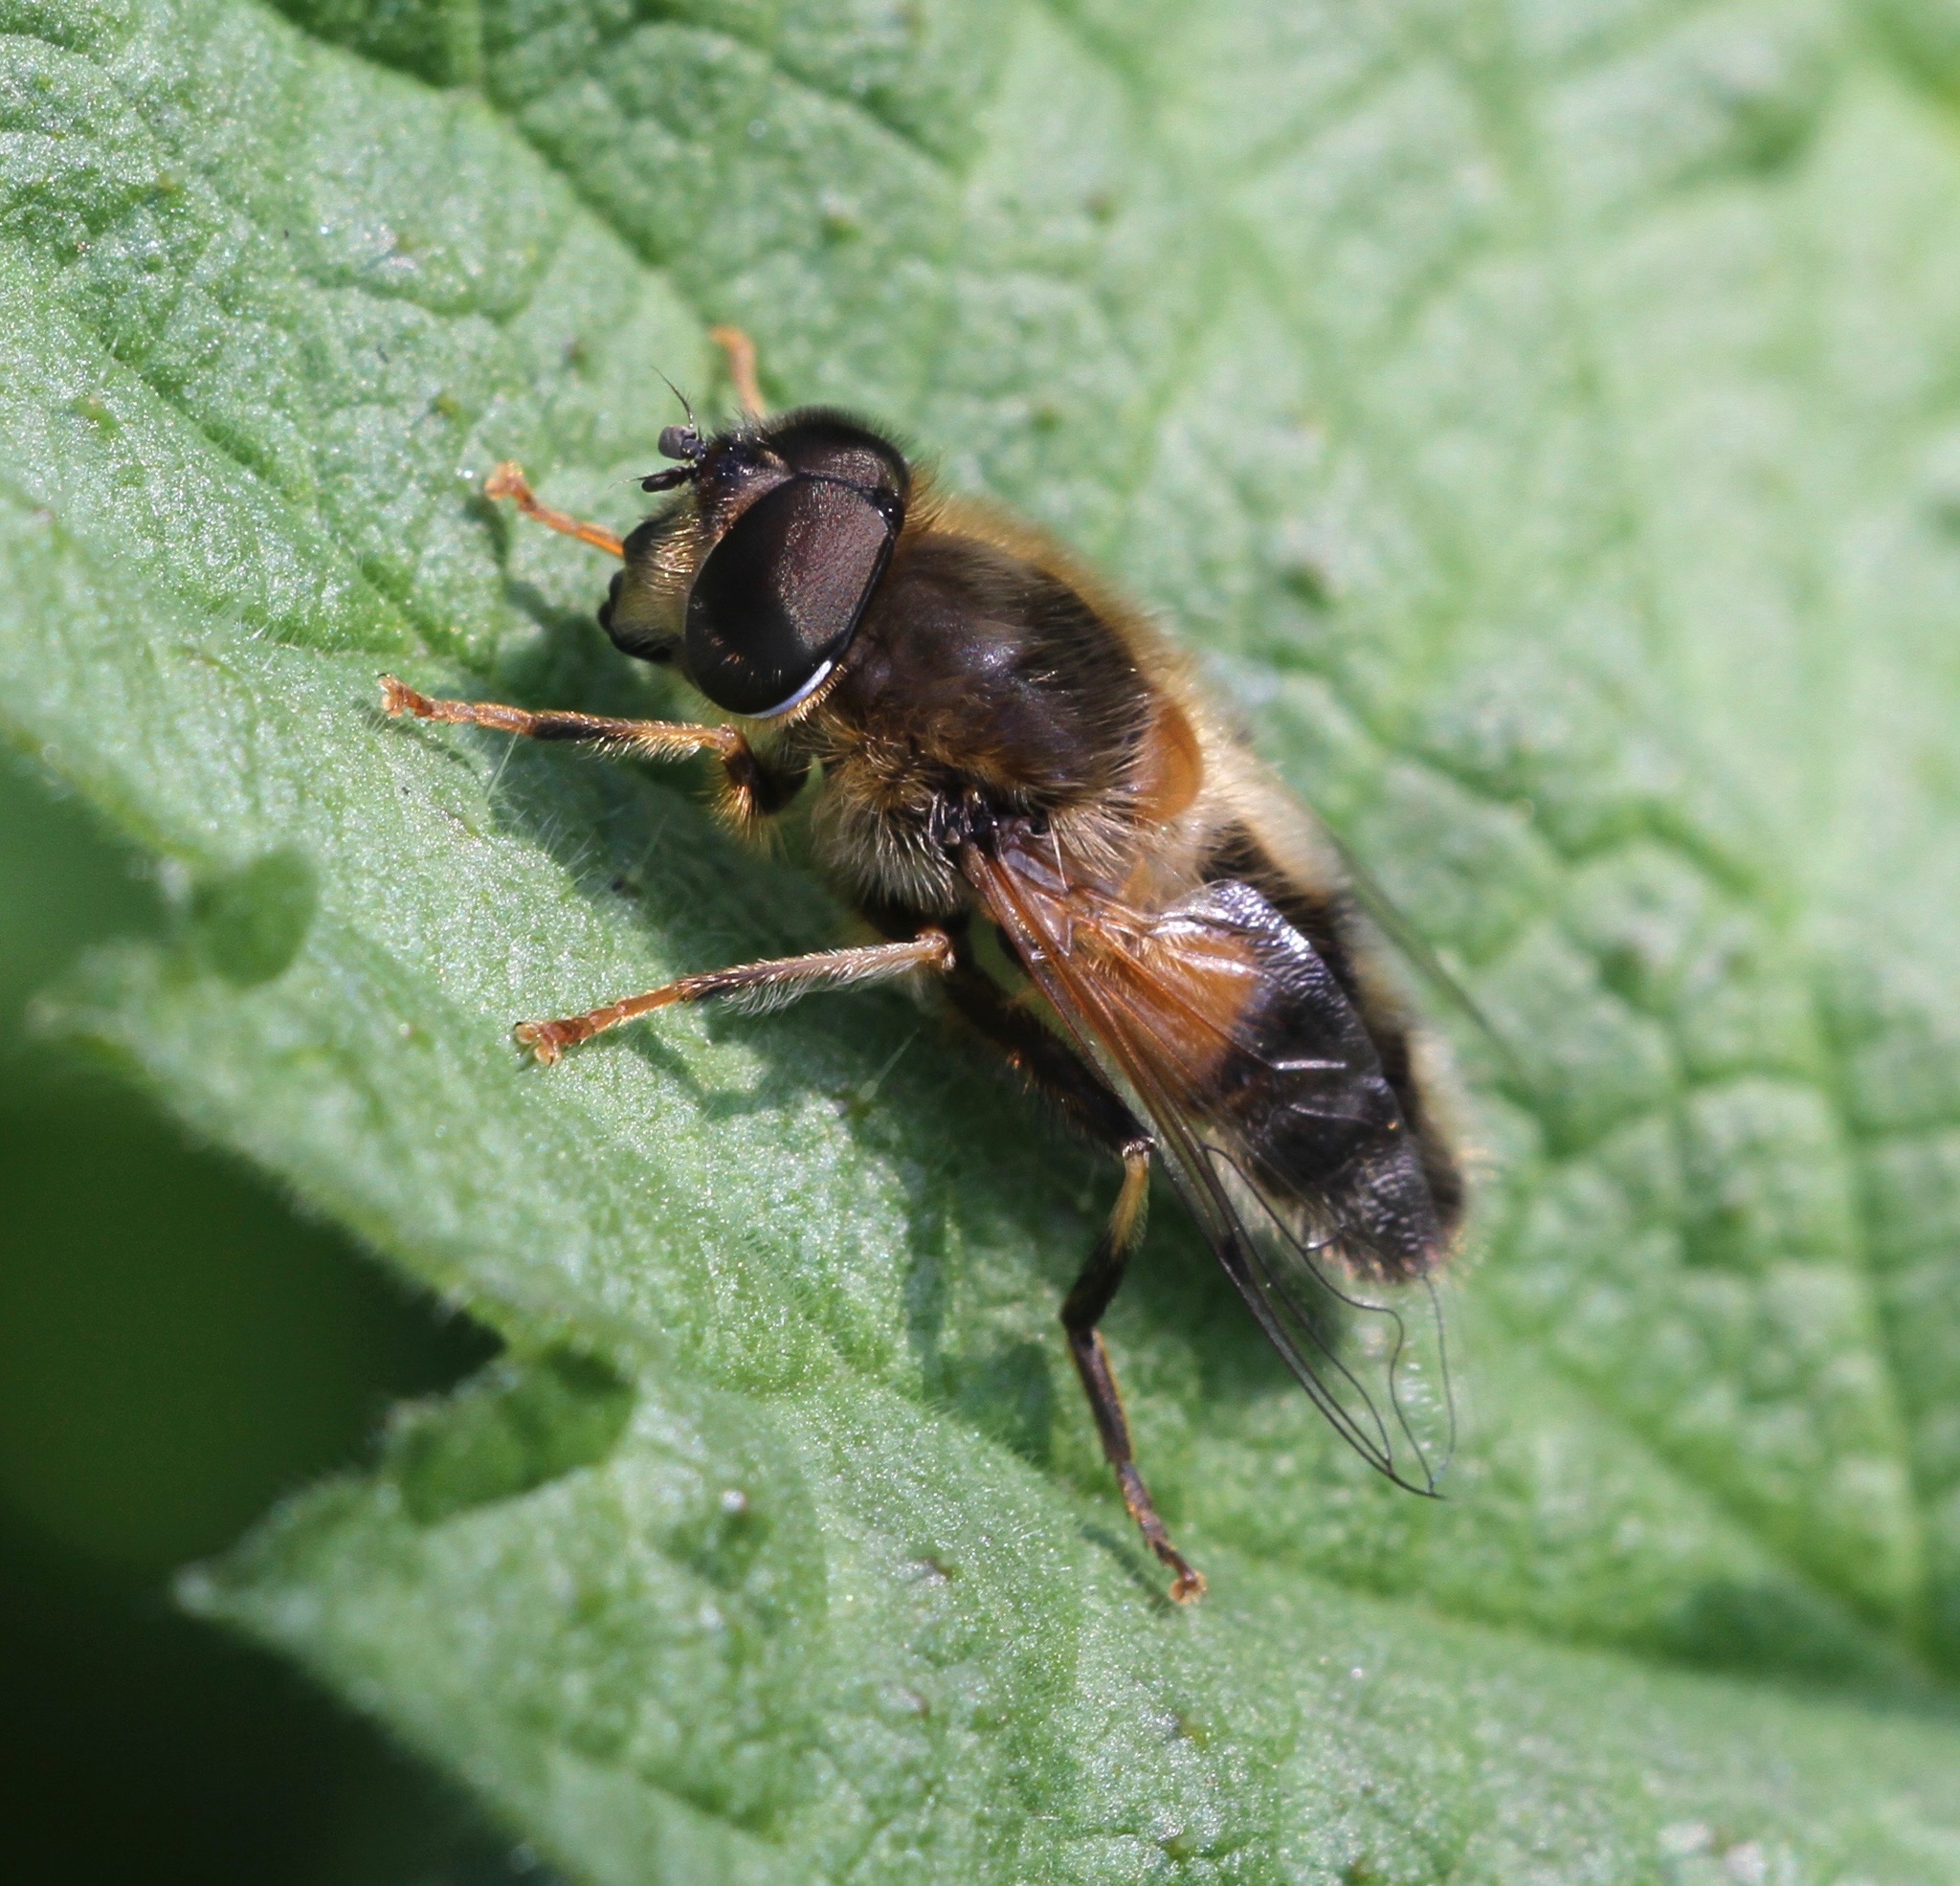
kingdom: Animalia
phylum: Arthropoda
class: Insecta
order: Diptera
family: Syrphidae
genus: Eristalis
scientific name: Eristalis pertinax
